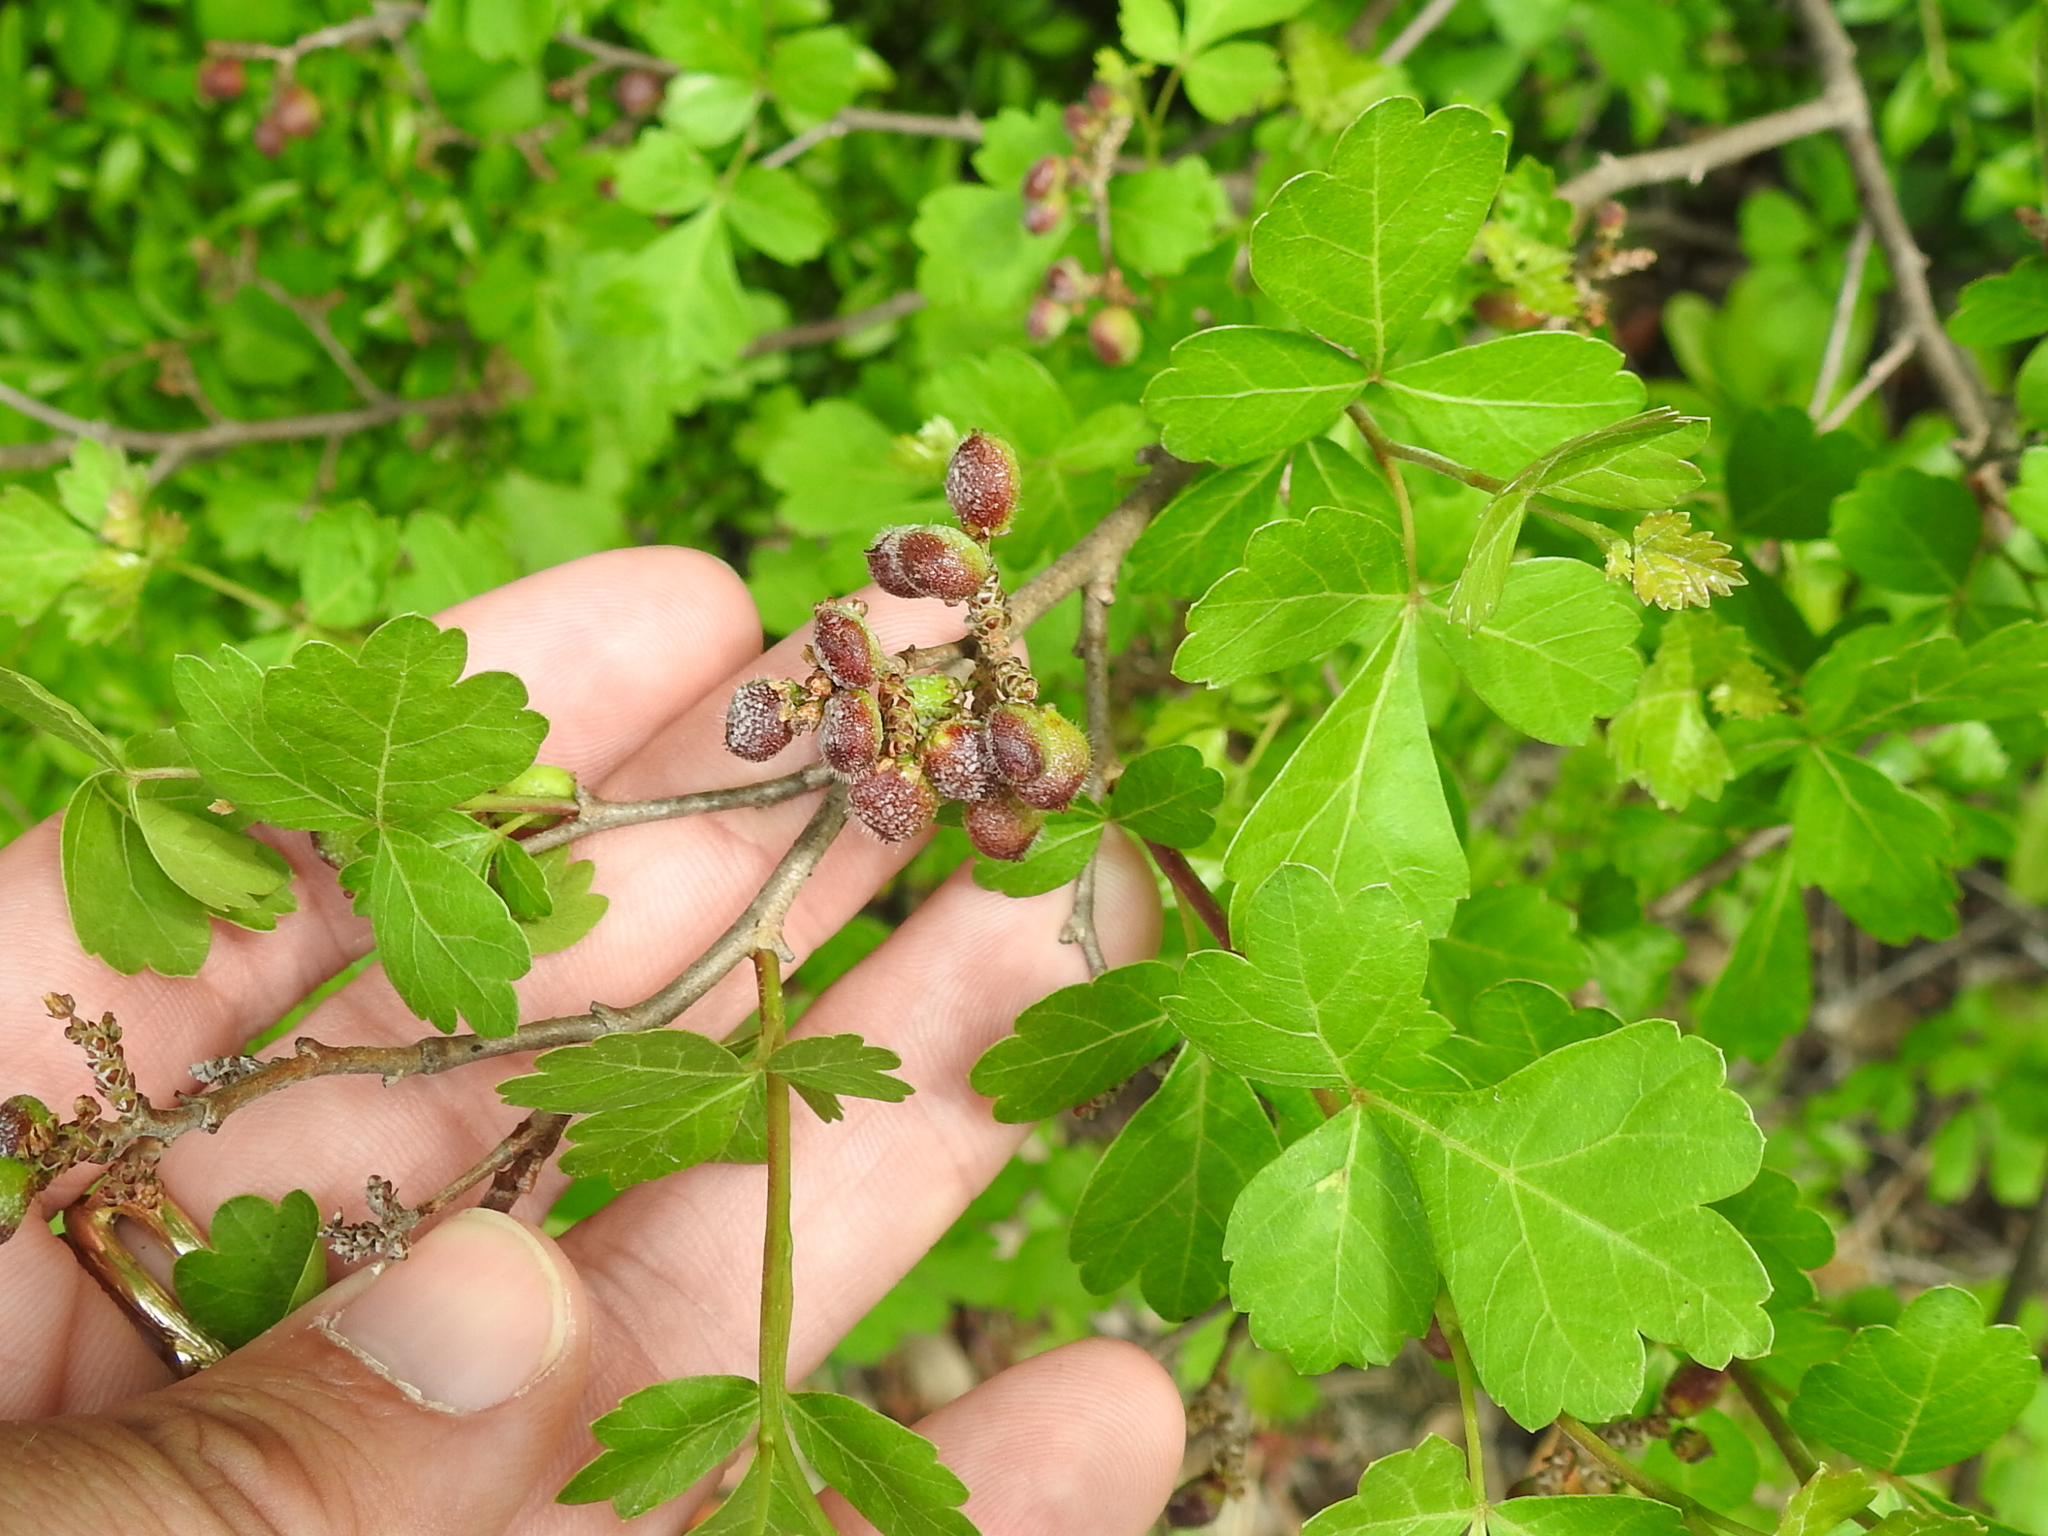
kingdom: Plantae
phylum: Tracheophyta
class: Magnoliopsida
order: Sapindales
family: Anacardiaceae
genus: Rhus
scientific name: Rhus aromatica
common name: Aromatic sumac
